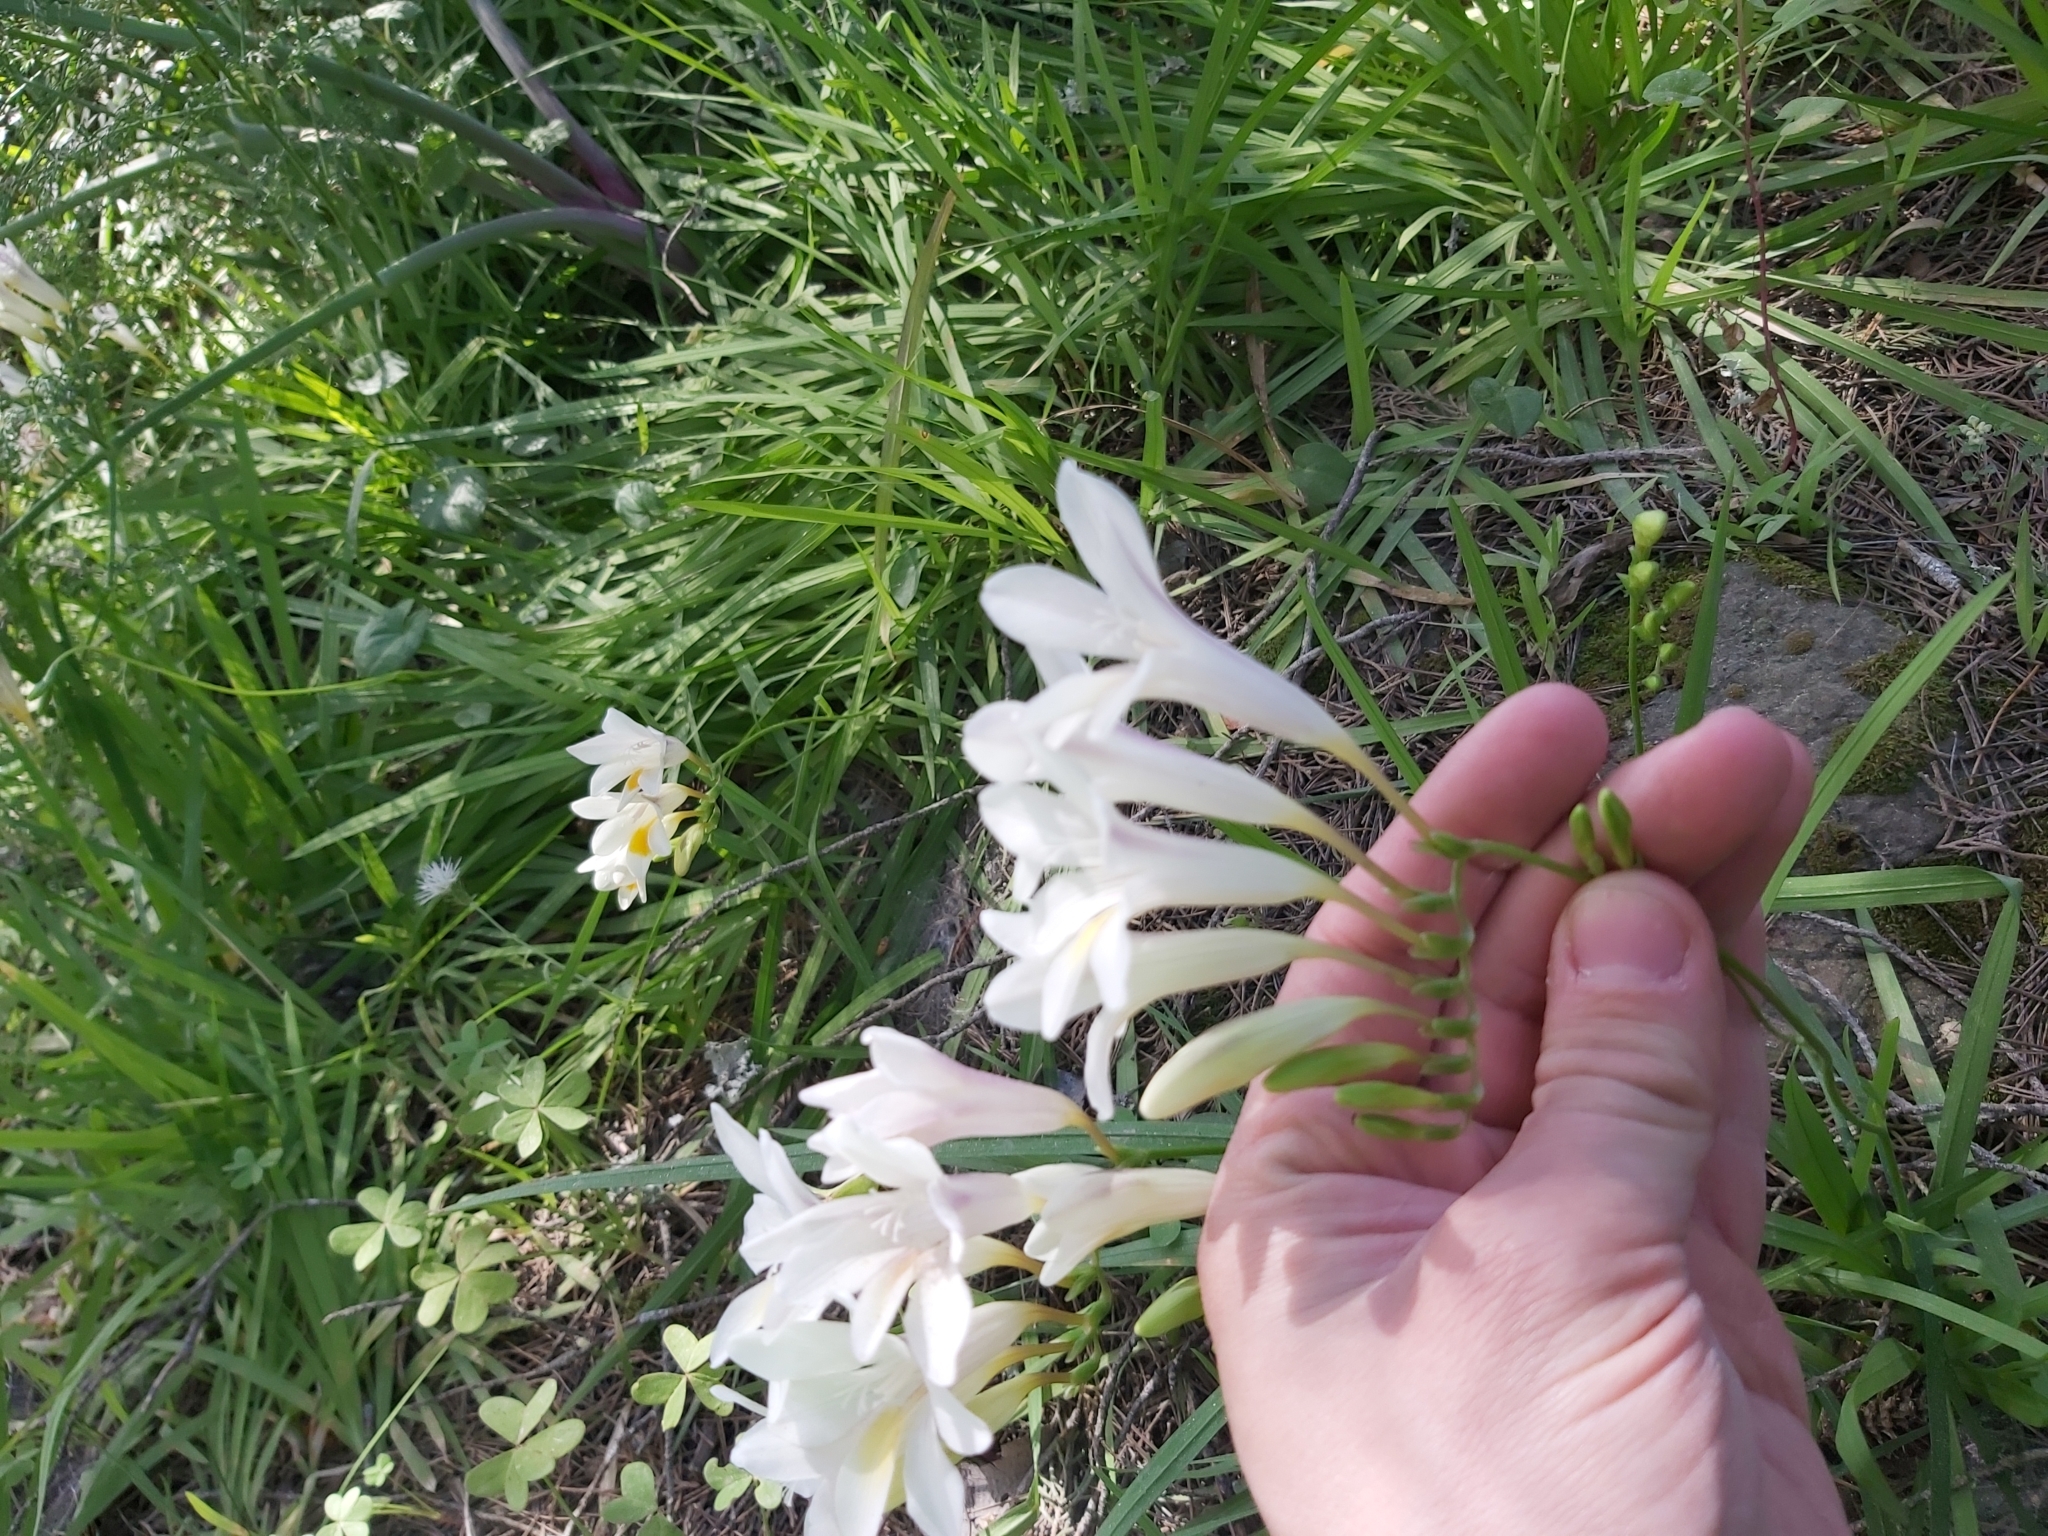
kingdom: Plantae
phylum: Tracheophyta
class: Liliopsida
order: Asparagales
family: Iridaceae
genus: Freesia
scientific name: Freesia leichtlinii
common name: Freesia
